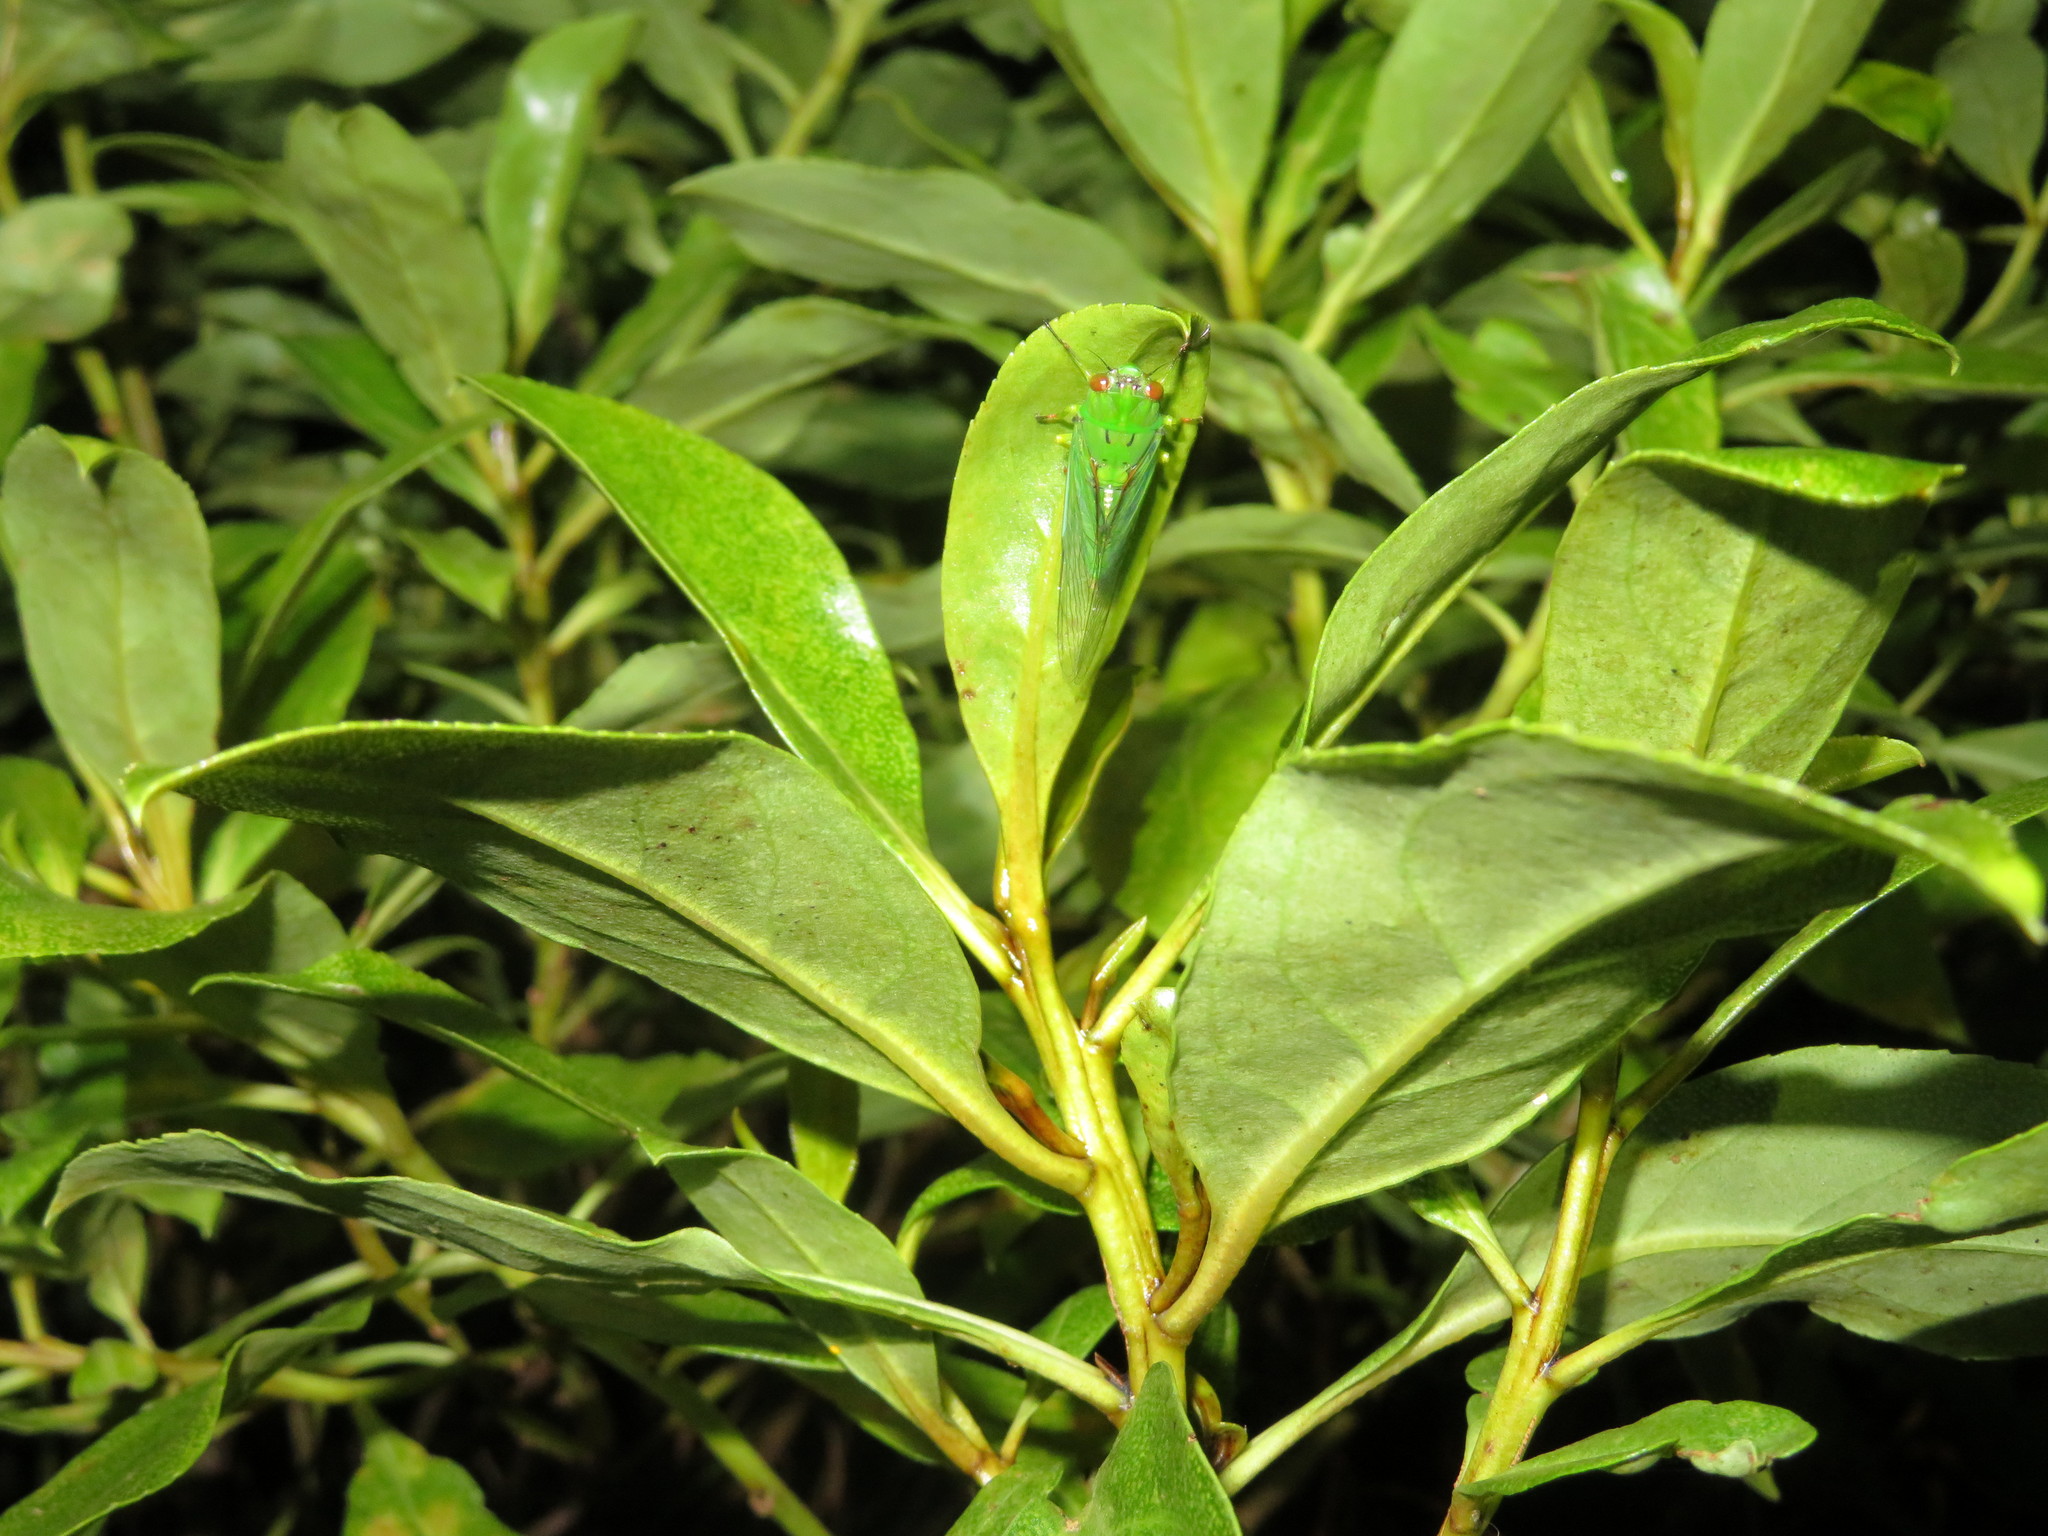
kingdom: Animalia
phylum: Arthropoda
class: Insecta
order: Hemiptera
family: Cicadidae
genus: Kikihia
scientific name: Kikihia ochrina
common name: April green cicada
